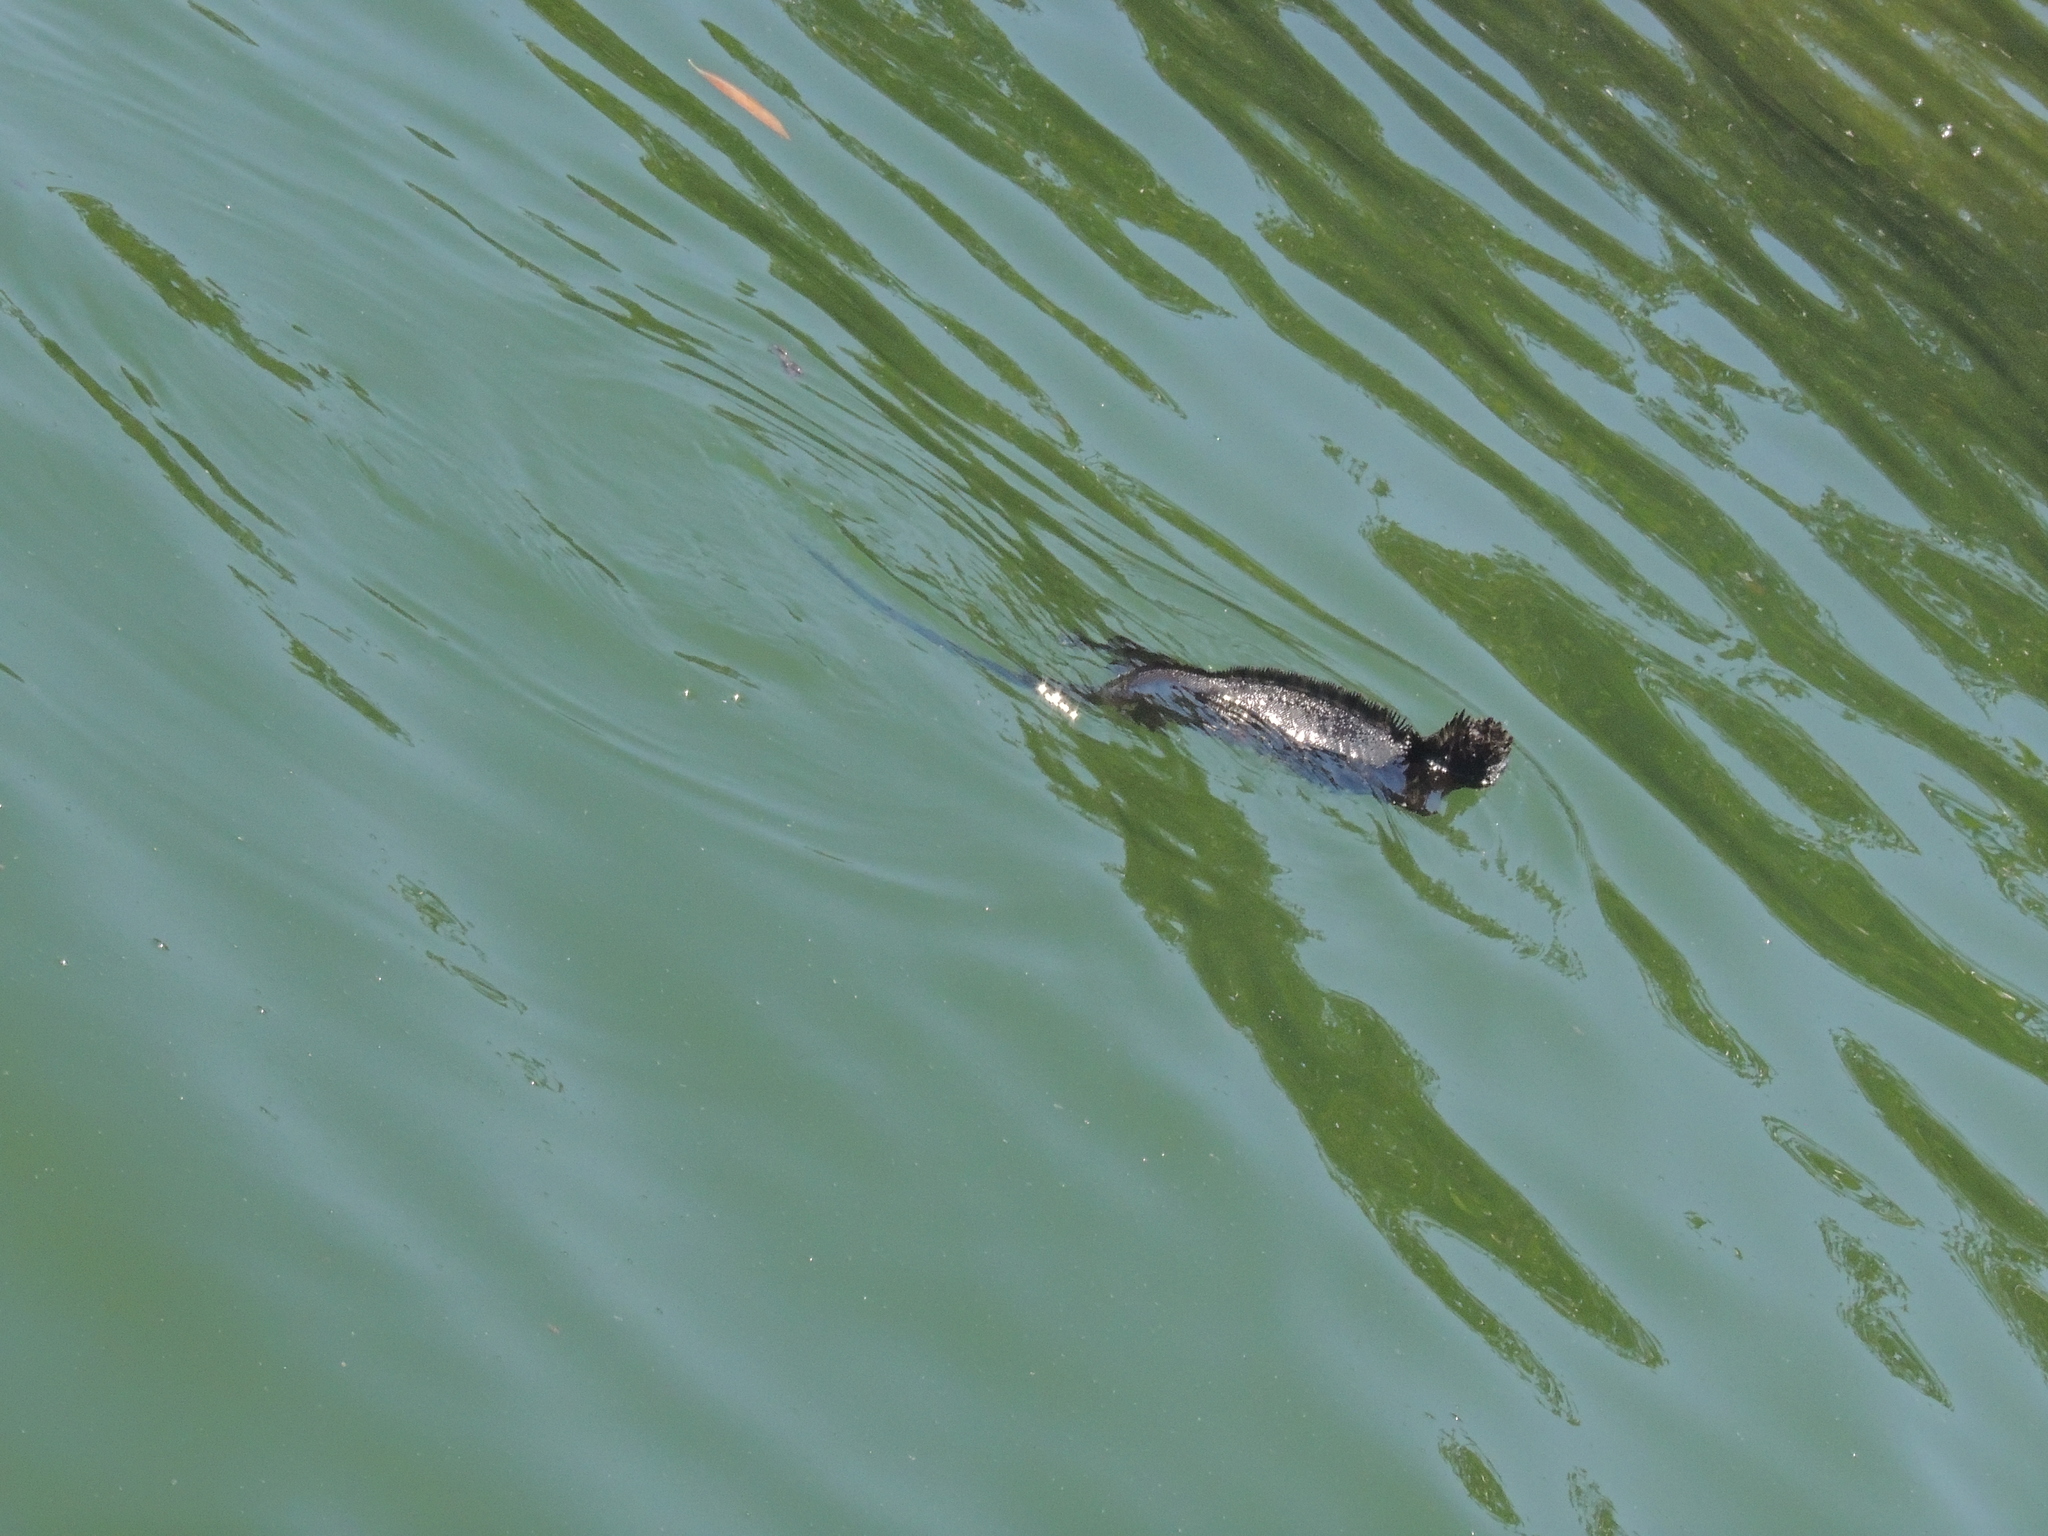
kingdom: Animalia
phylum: Chordata
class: Squamata
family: Iguanidae
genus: Amblyrhynchus
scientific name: Amblyrhynchus cristatus
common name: Marine iguana
